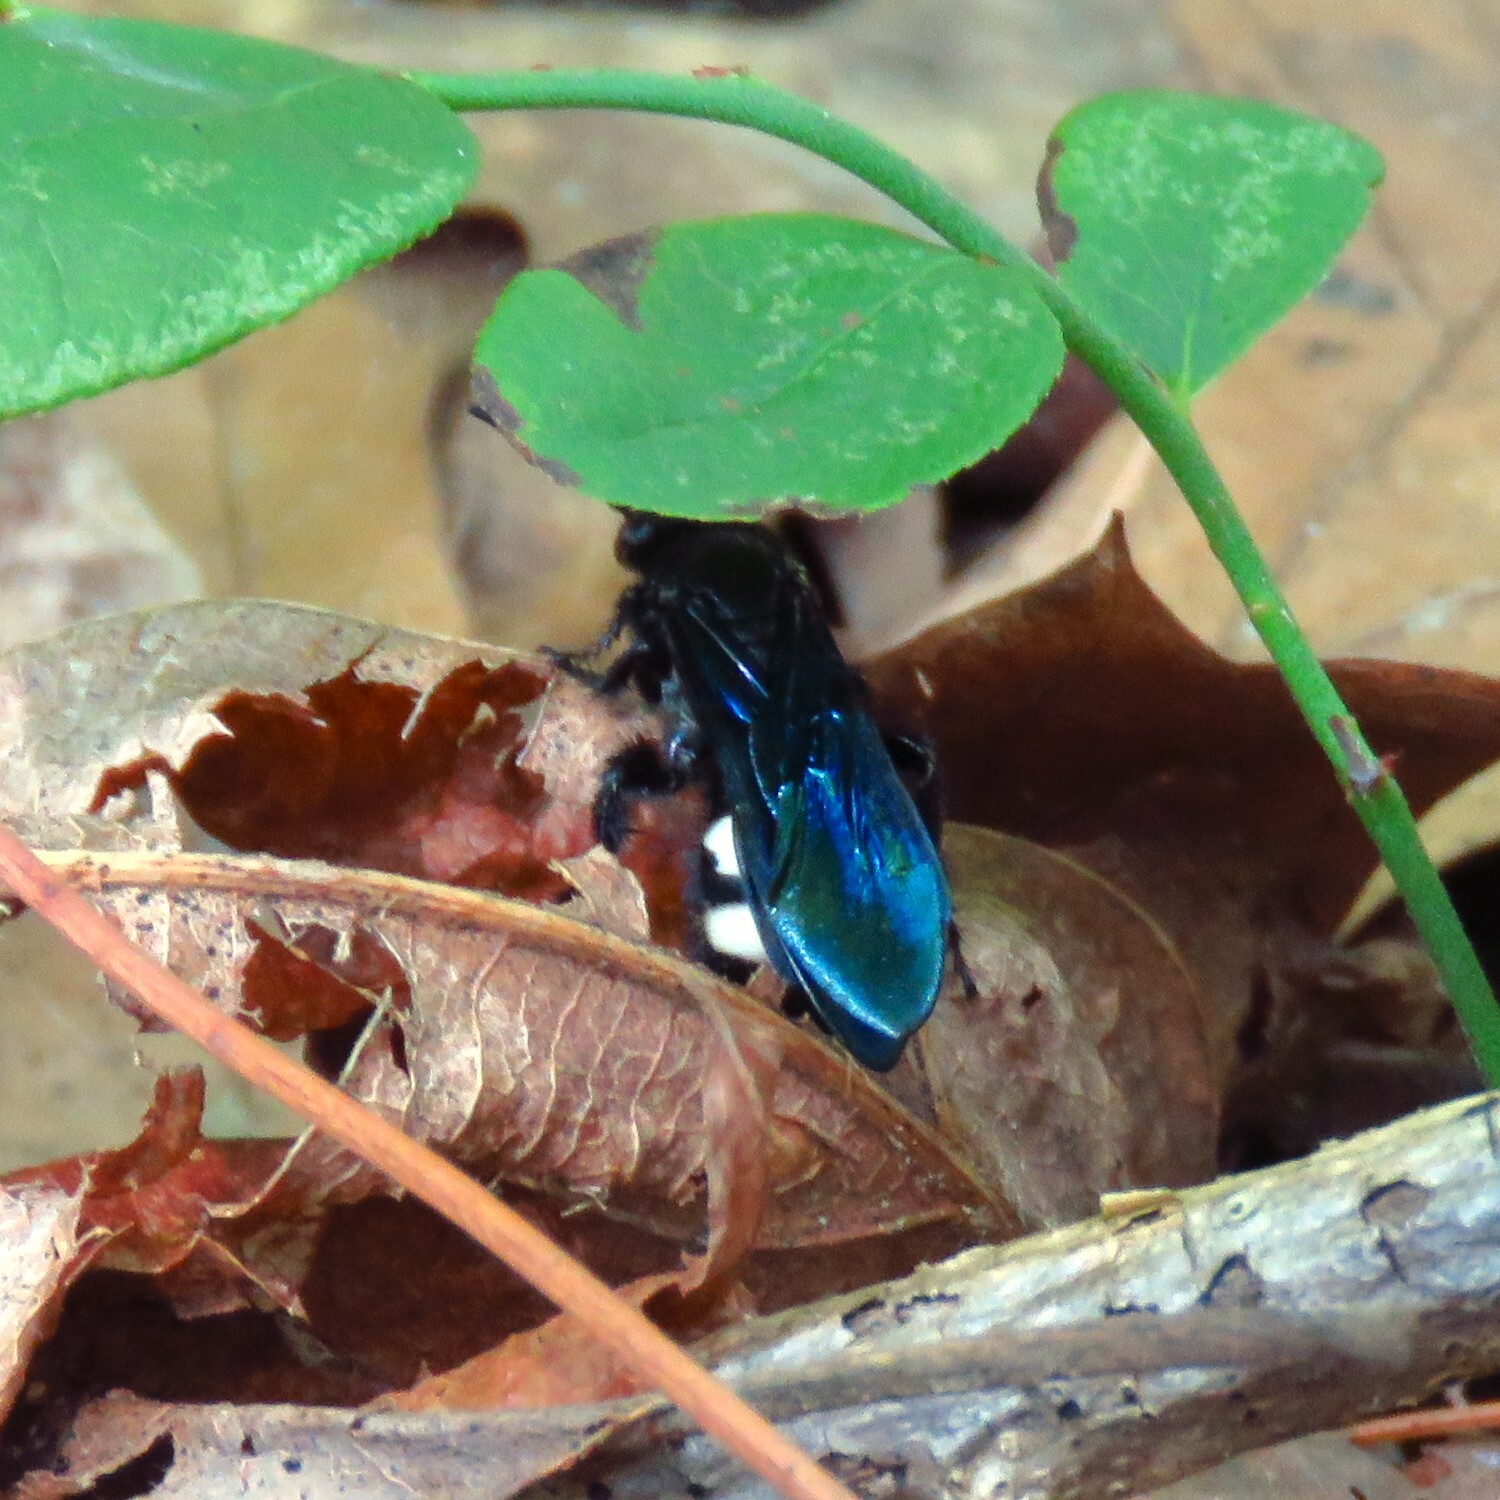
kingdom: Animalia
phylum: Arthropoda
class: Insecta
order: Hymenoptera
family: Scoliidae
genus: Scolia
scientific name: Scolia bicincta
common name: Double-banded scoliid wasp
